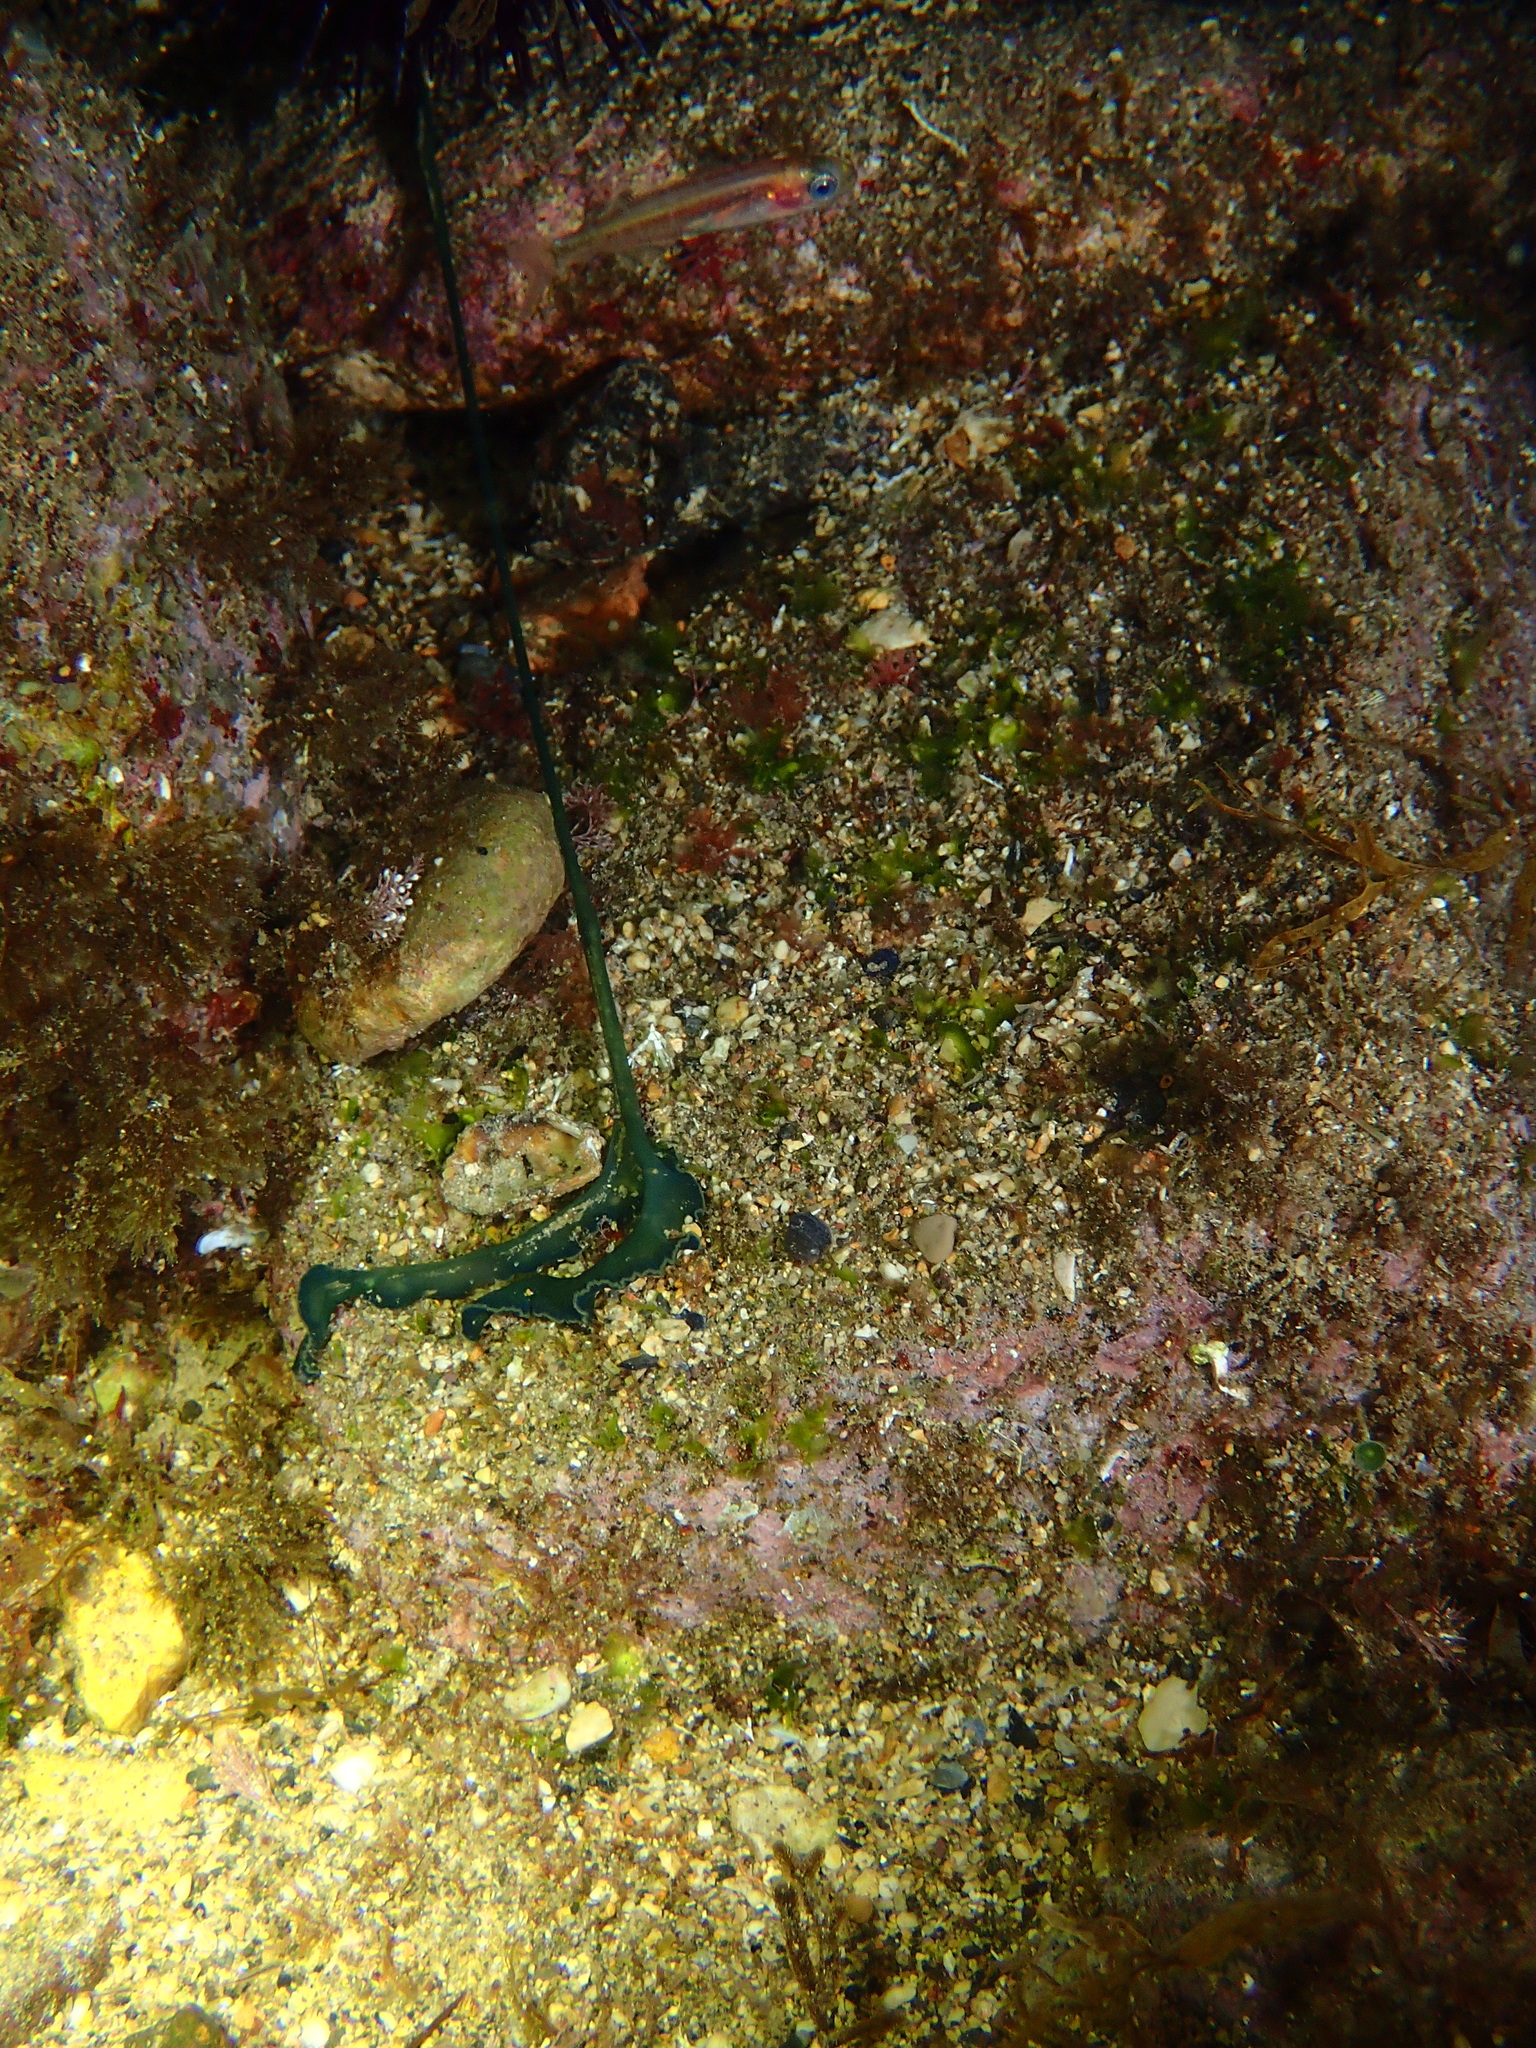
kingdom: Animalia
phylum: Annelida
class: Polychaeta
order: Echiuroidea
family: Bonelliidae
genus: Bonellia
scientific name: Bonellia viridis
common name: Green spoon worm
